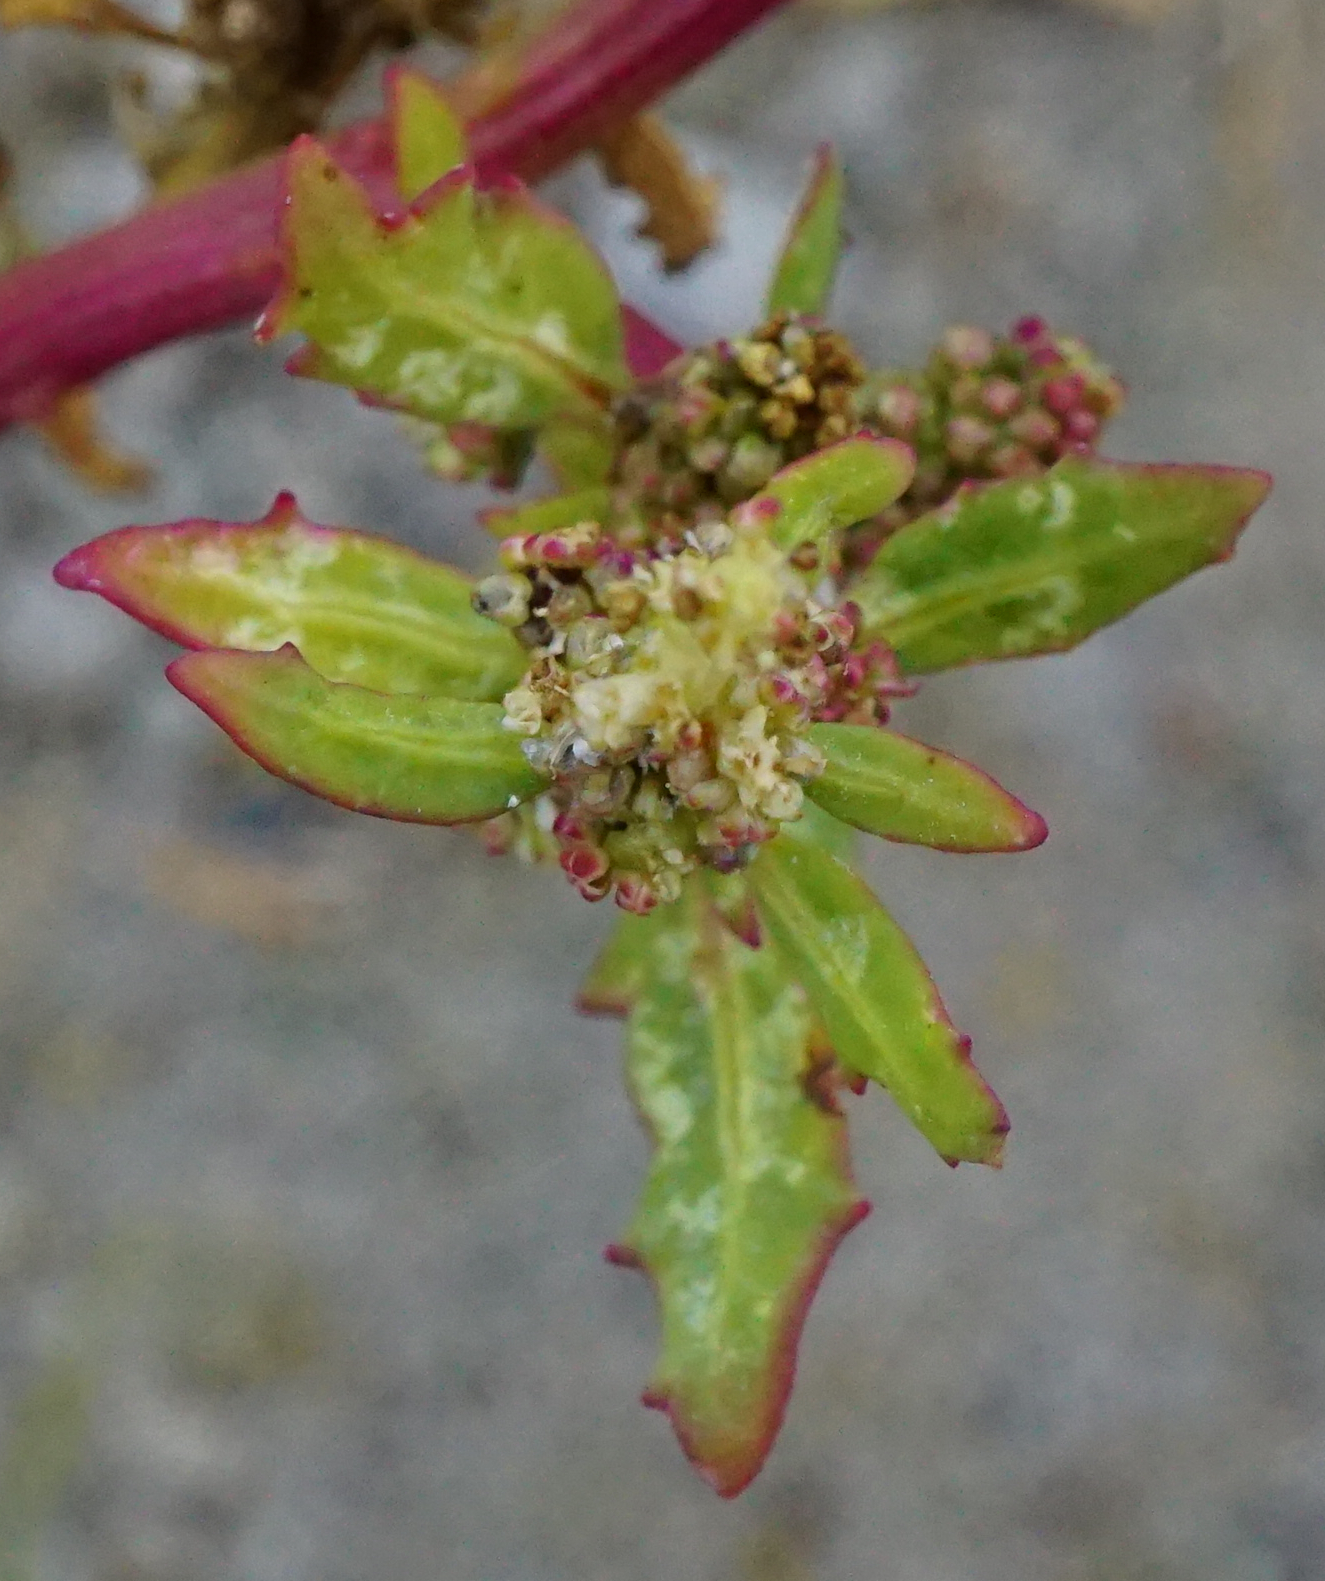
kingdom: Plantae
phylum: Tracheophyta
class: Magnoliopsida
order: Caryophyllales
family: Amaranthaceae
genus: Oxybasis
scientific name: Oxybasis glauca
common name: Glaucous goosefoot
